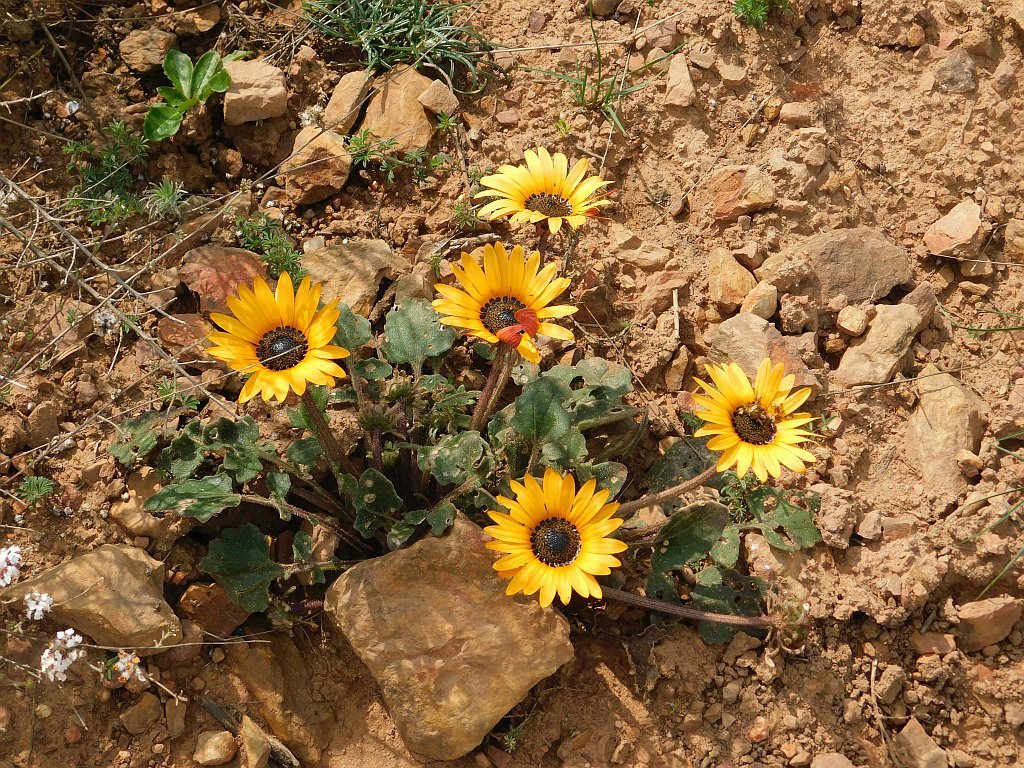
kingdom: Plantae
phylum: Tracheophyta
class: Magnoliopsida
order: Asterales
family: Asteraceae
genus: Arctotis
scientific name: Arctotis acaulis
